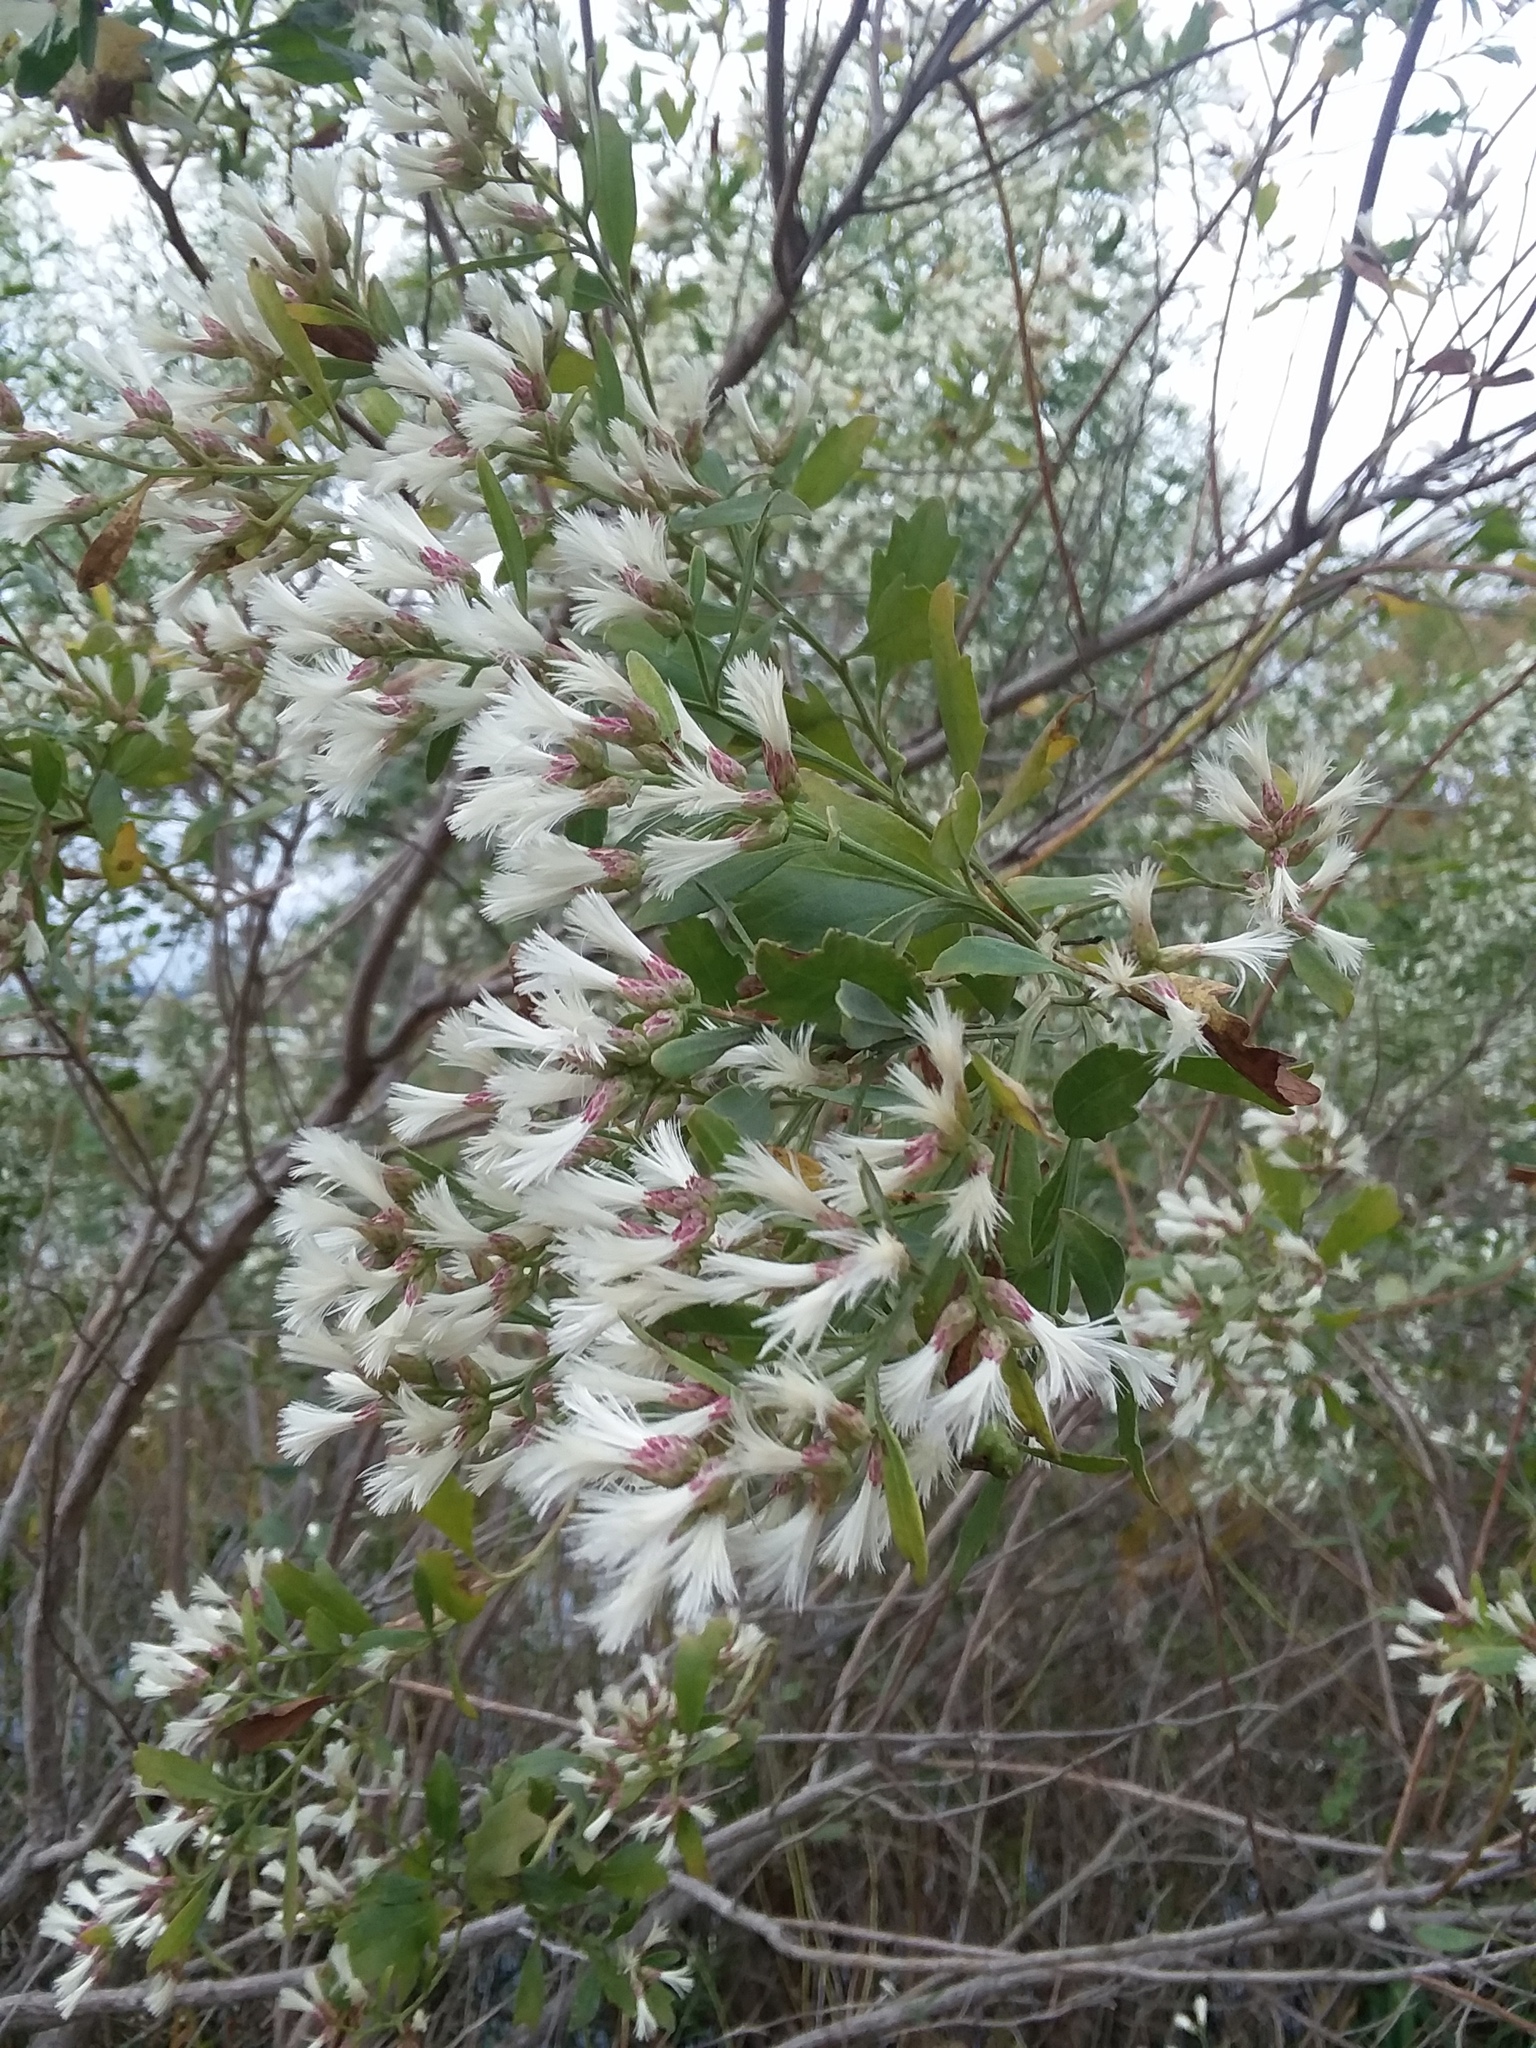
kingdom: Plantae
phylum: Tracheophyta
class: Magnoliopsida
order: Asterales
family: Asteraceae
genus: Baccharis
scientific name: Baccharis halimifolia
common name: Eastern baccharis
